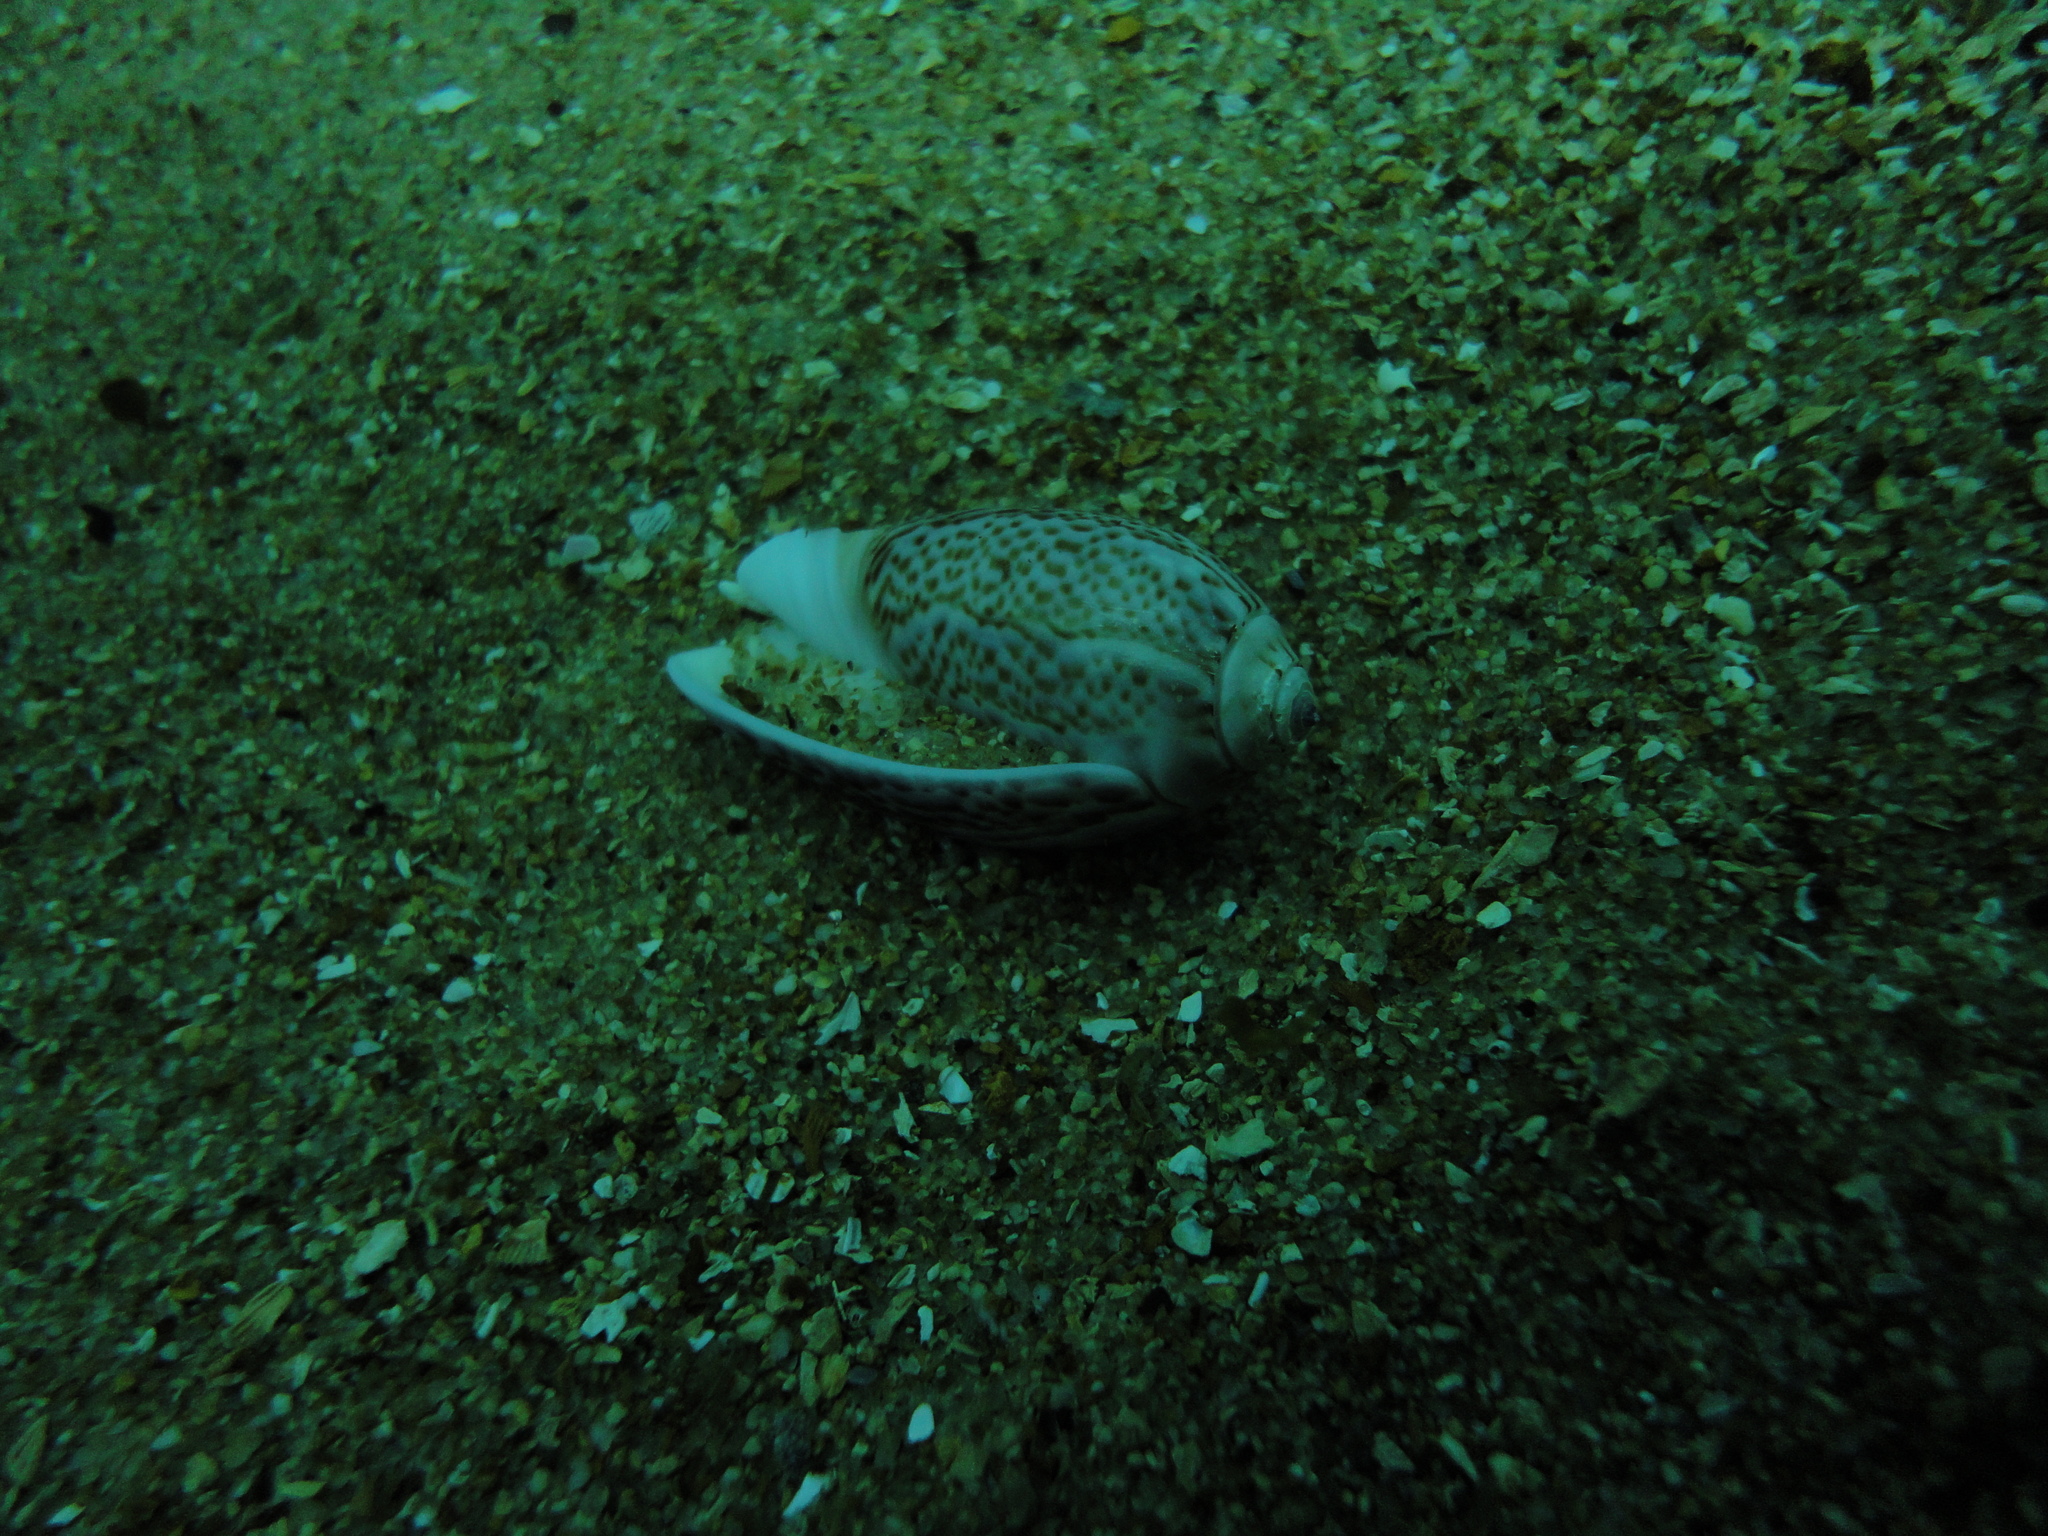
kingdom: Animalia
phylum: Mollusca
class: Gastropoda
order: Neogastropoda
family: Olividae
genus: Felicioliva
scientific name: Felicioliva peruviana
